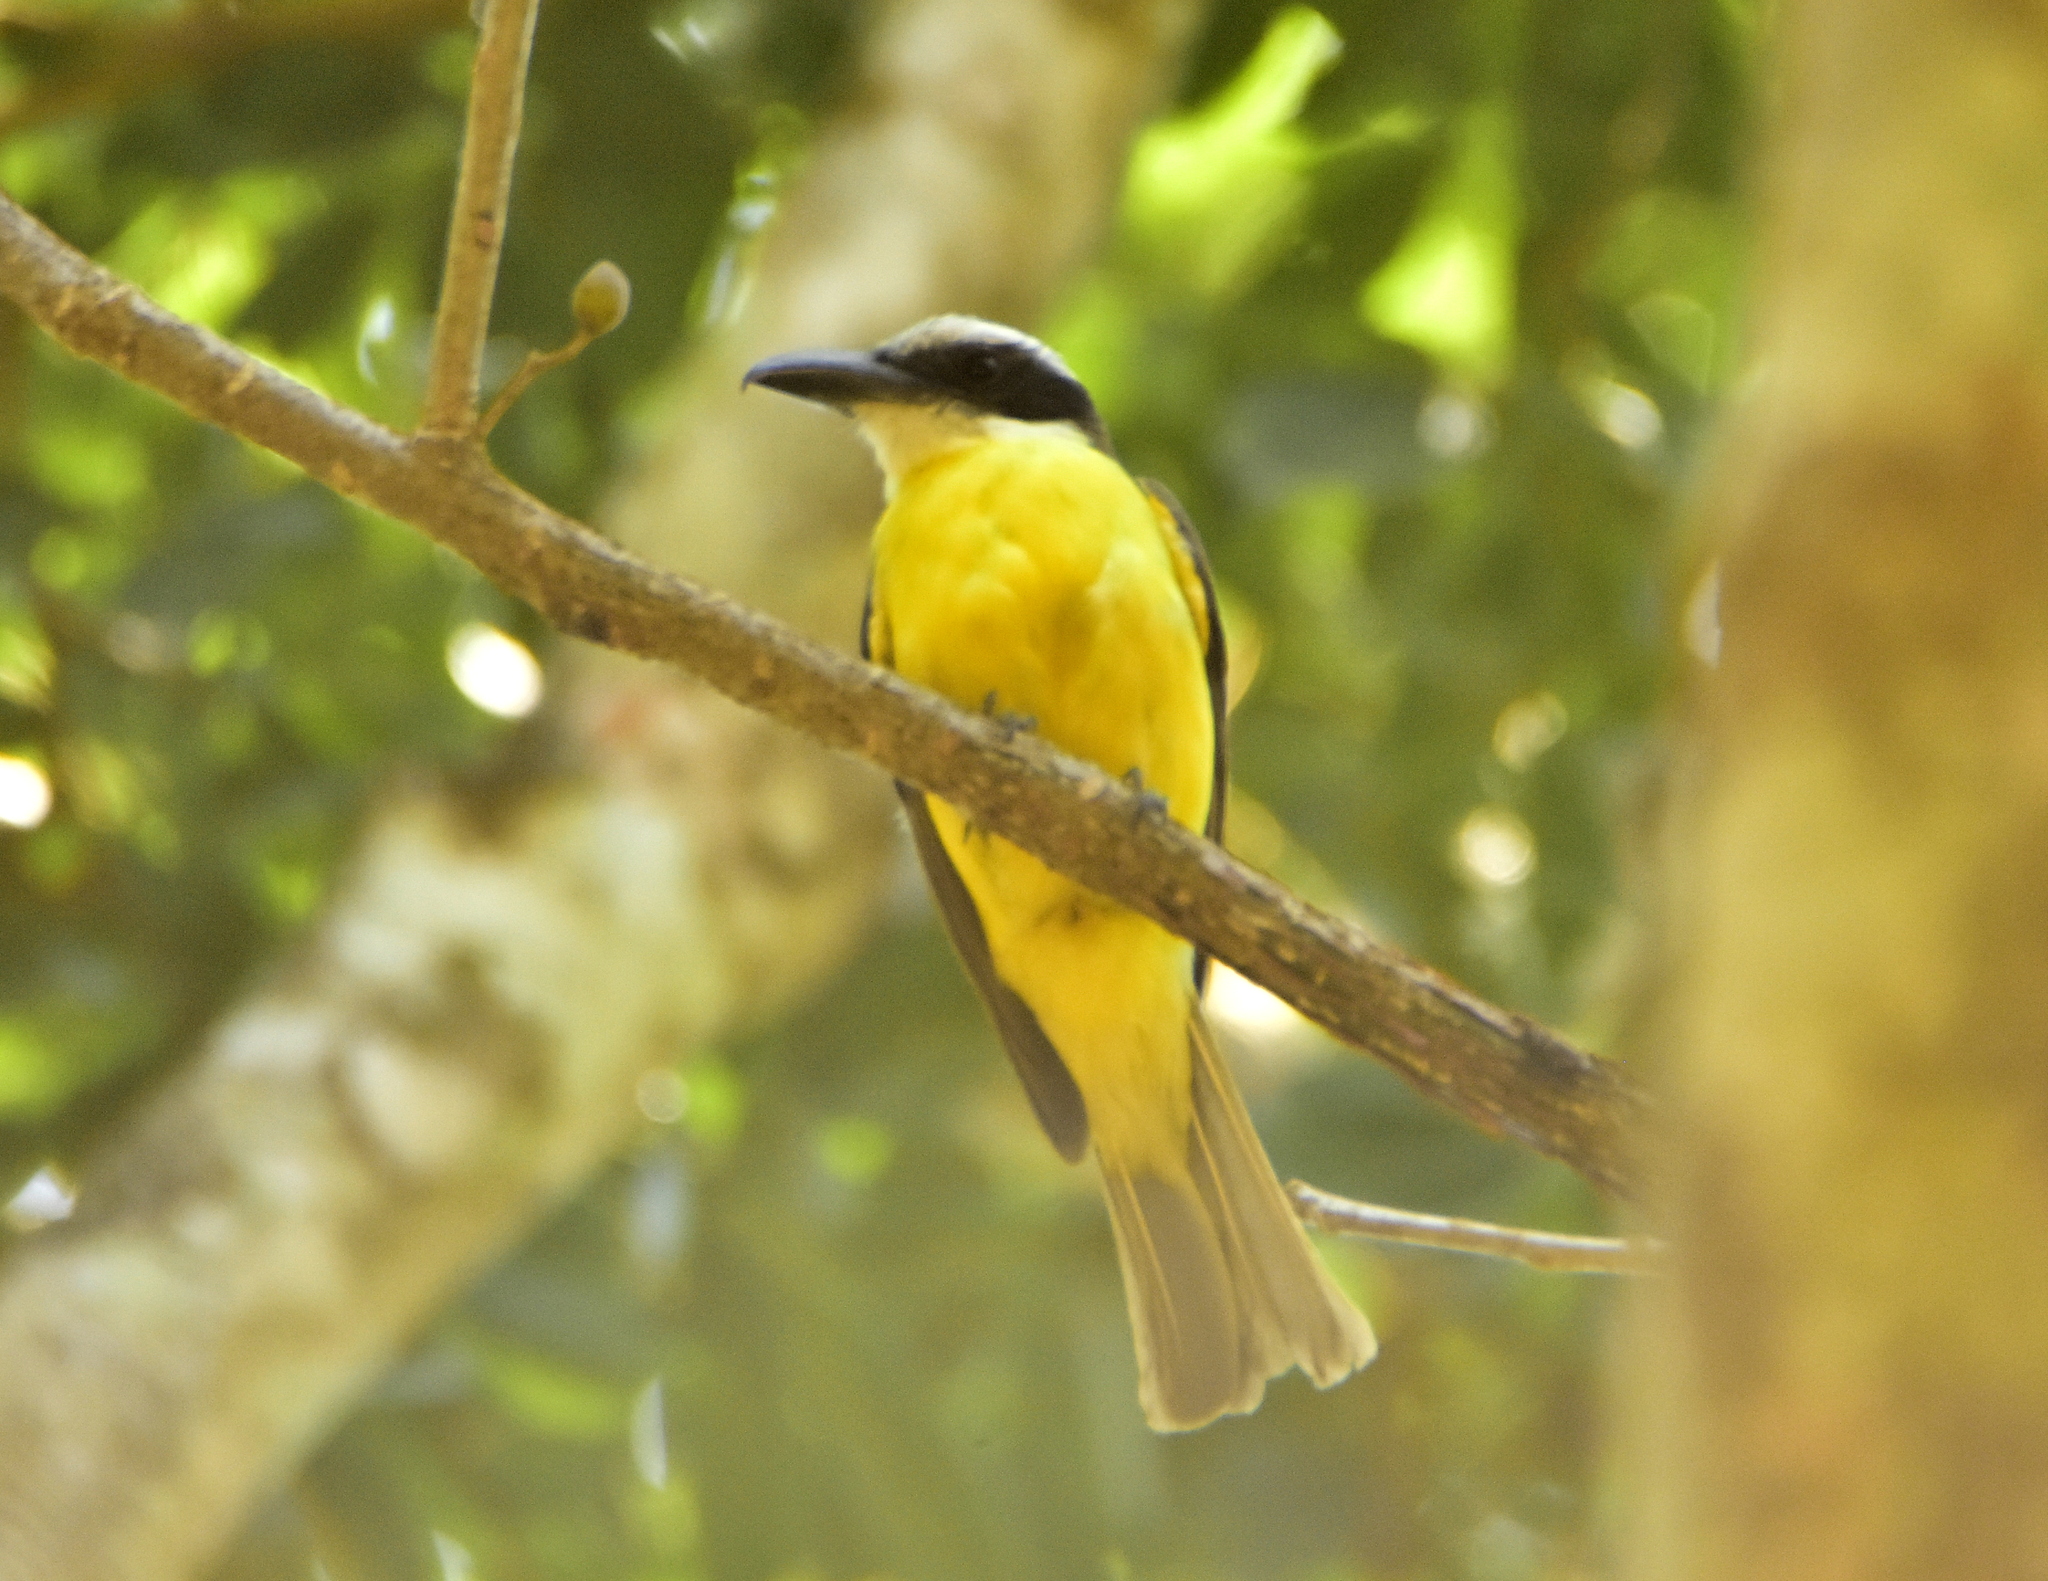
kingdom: Animalia
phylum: Chordata
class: Aves
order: Passeriformes
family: Tyrannidae
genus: Megarynchus
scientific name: Megarynchus pitangua
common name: Boat-billed flycatcher
